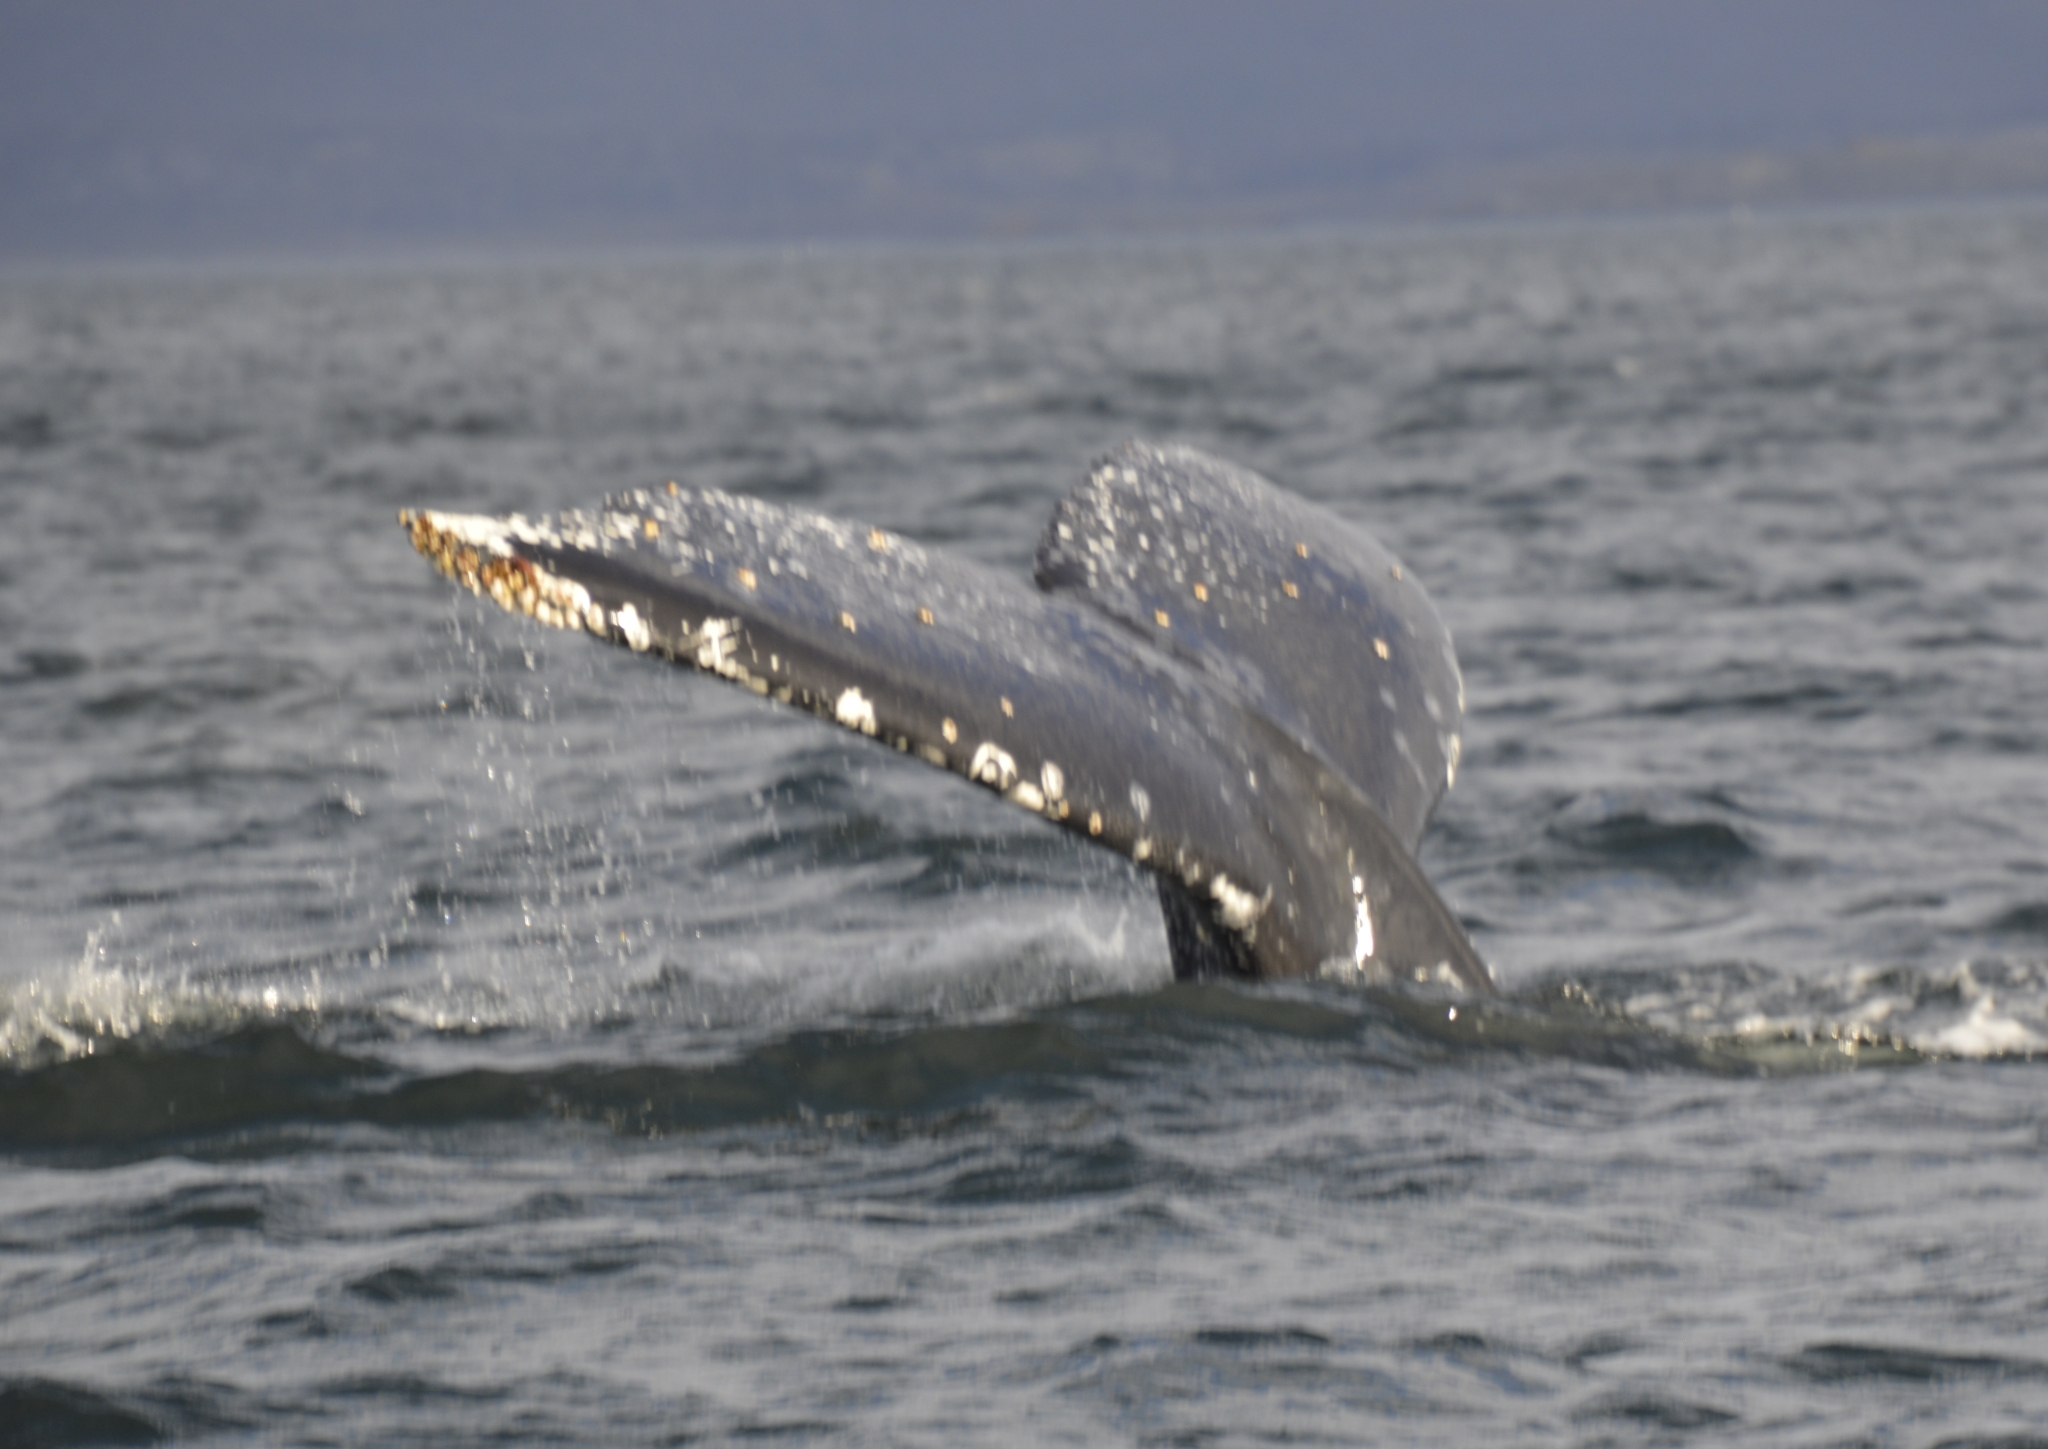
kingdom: Animalia
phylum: Chordata
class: Mammalia
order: Cetacea
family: Balaenopteridae
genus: Megaptera
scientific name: Megaptera novaeangliae
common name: Humpback whale
